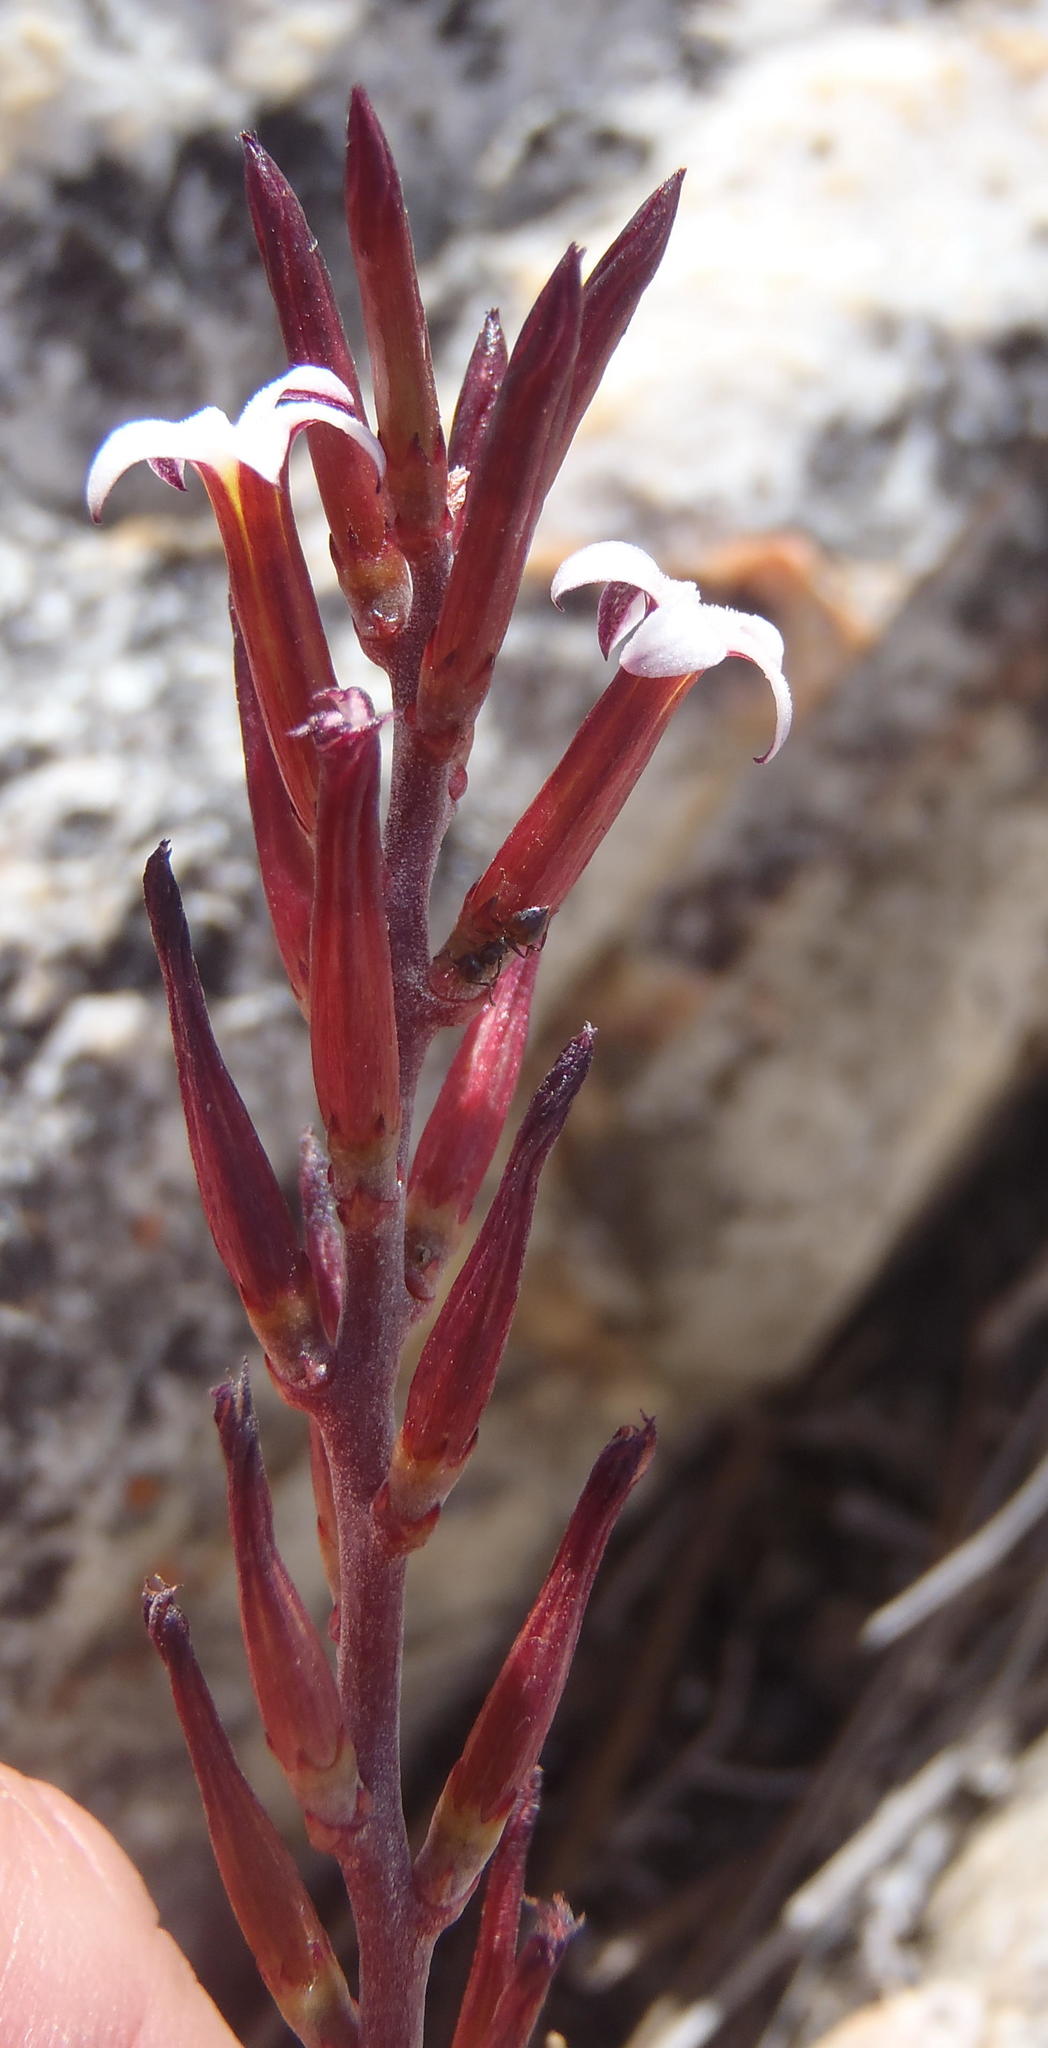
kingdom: Plantae
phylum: Tracheophyta
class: Magnoliopsida
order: Saxifragales
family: Crassulaceae
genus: Adromischus
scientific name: Adromischus inamoenus
